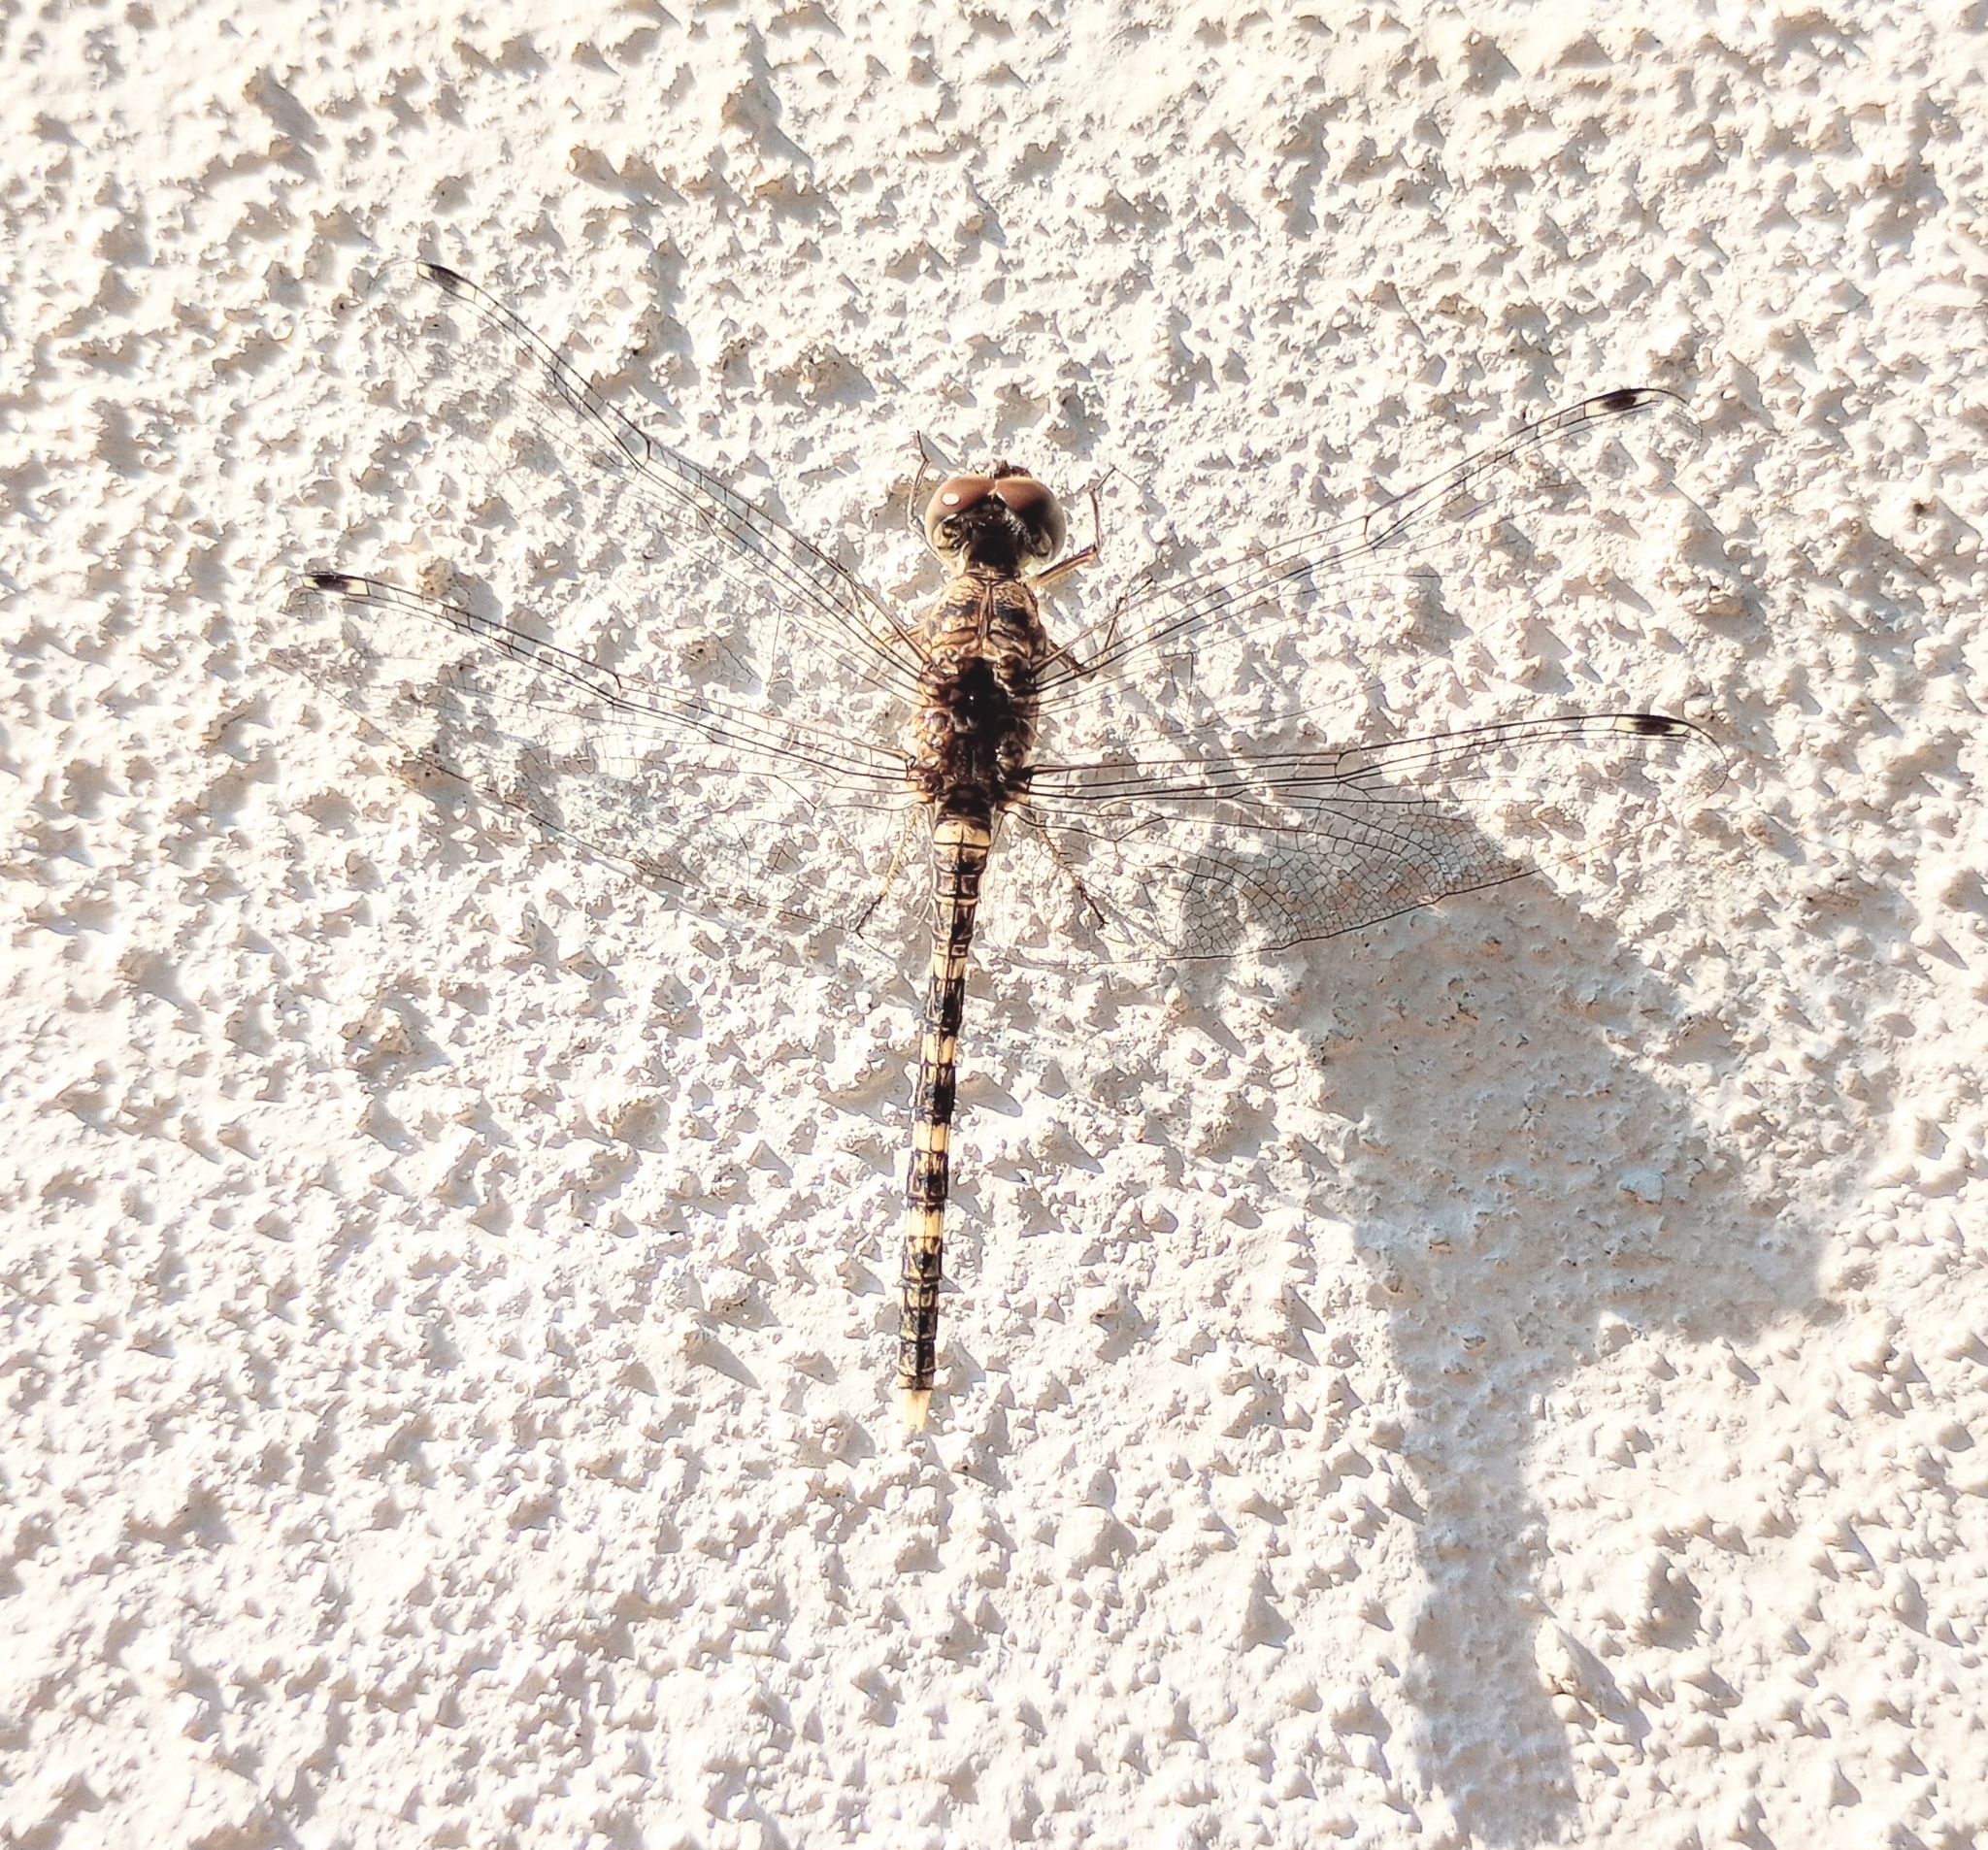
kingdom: Animalia
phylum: Arthropoda
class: Insecta
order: Odonata
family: Libellulidae
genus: Bradinopyga
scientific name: Bradinopyga geminata
